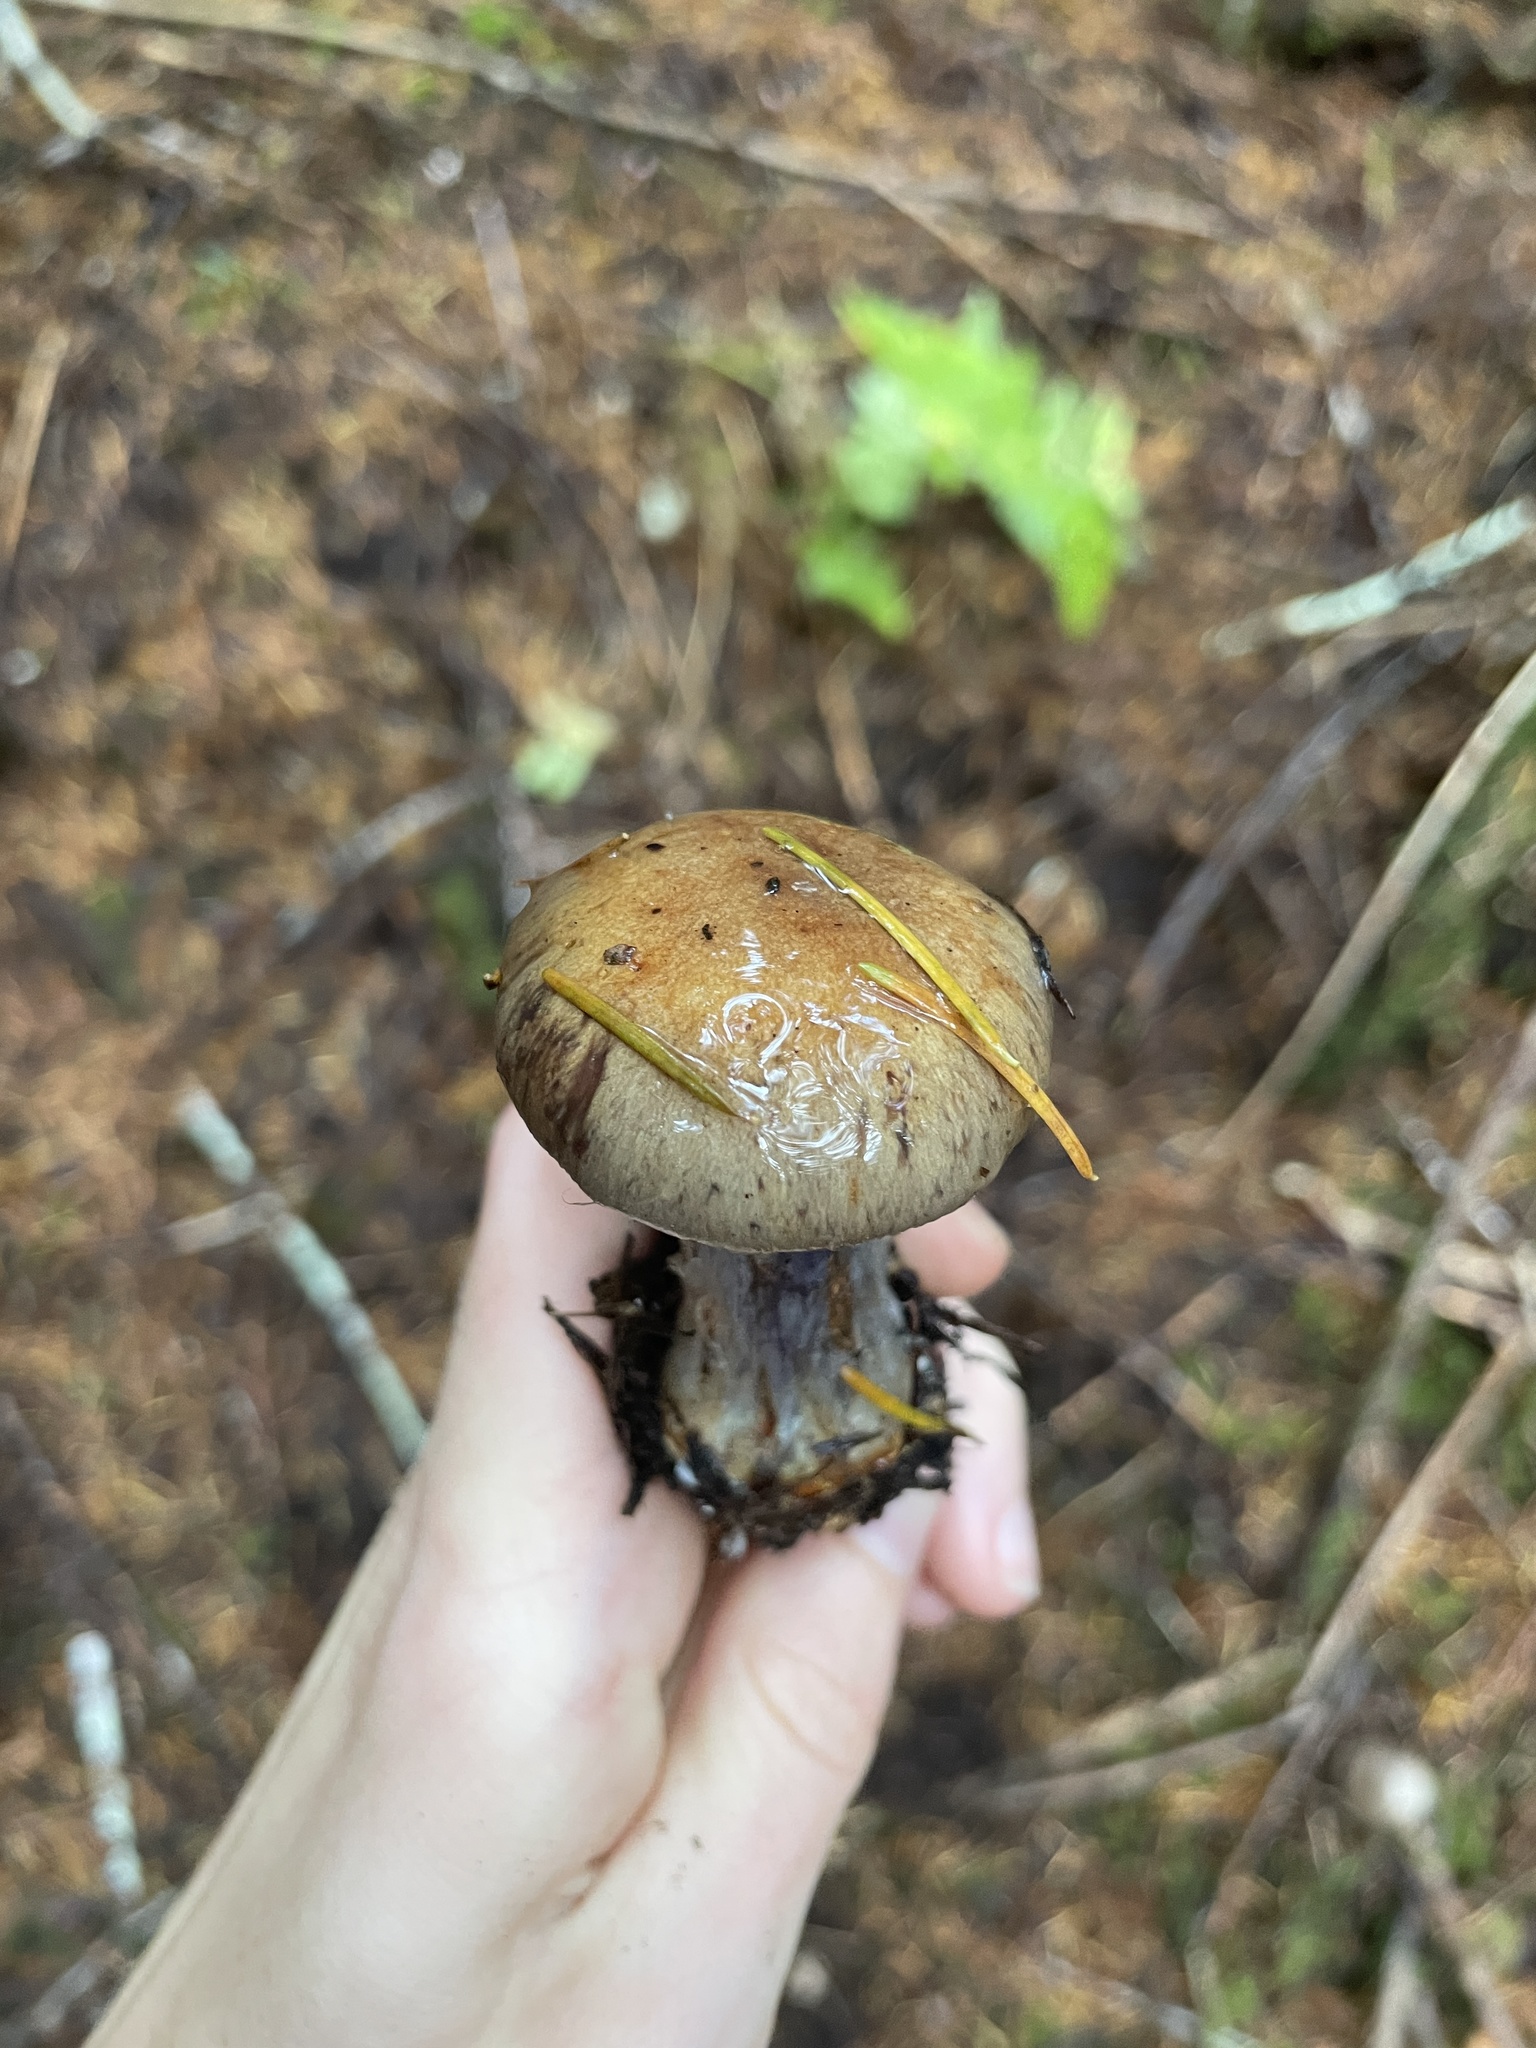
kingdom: Fungi
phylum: Basidiomycota
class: Agaricomycetes
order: Agaricales
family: Cortinariaceae
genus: Thaxterogaster
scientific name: Thaxterogaster riederi
